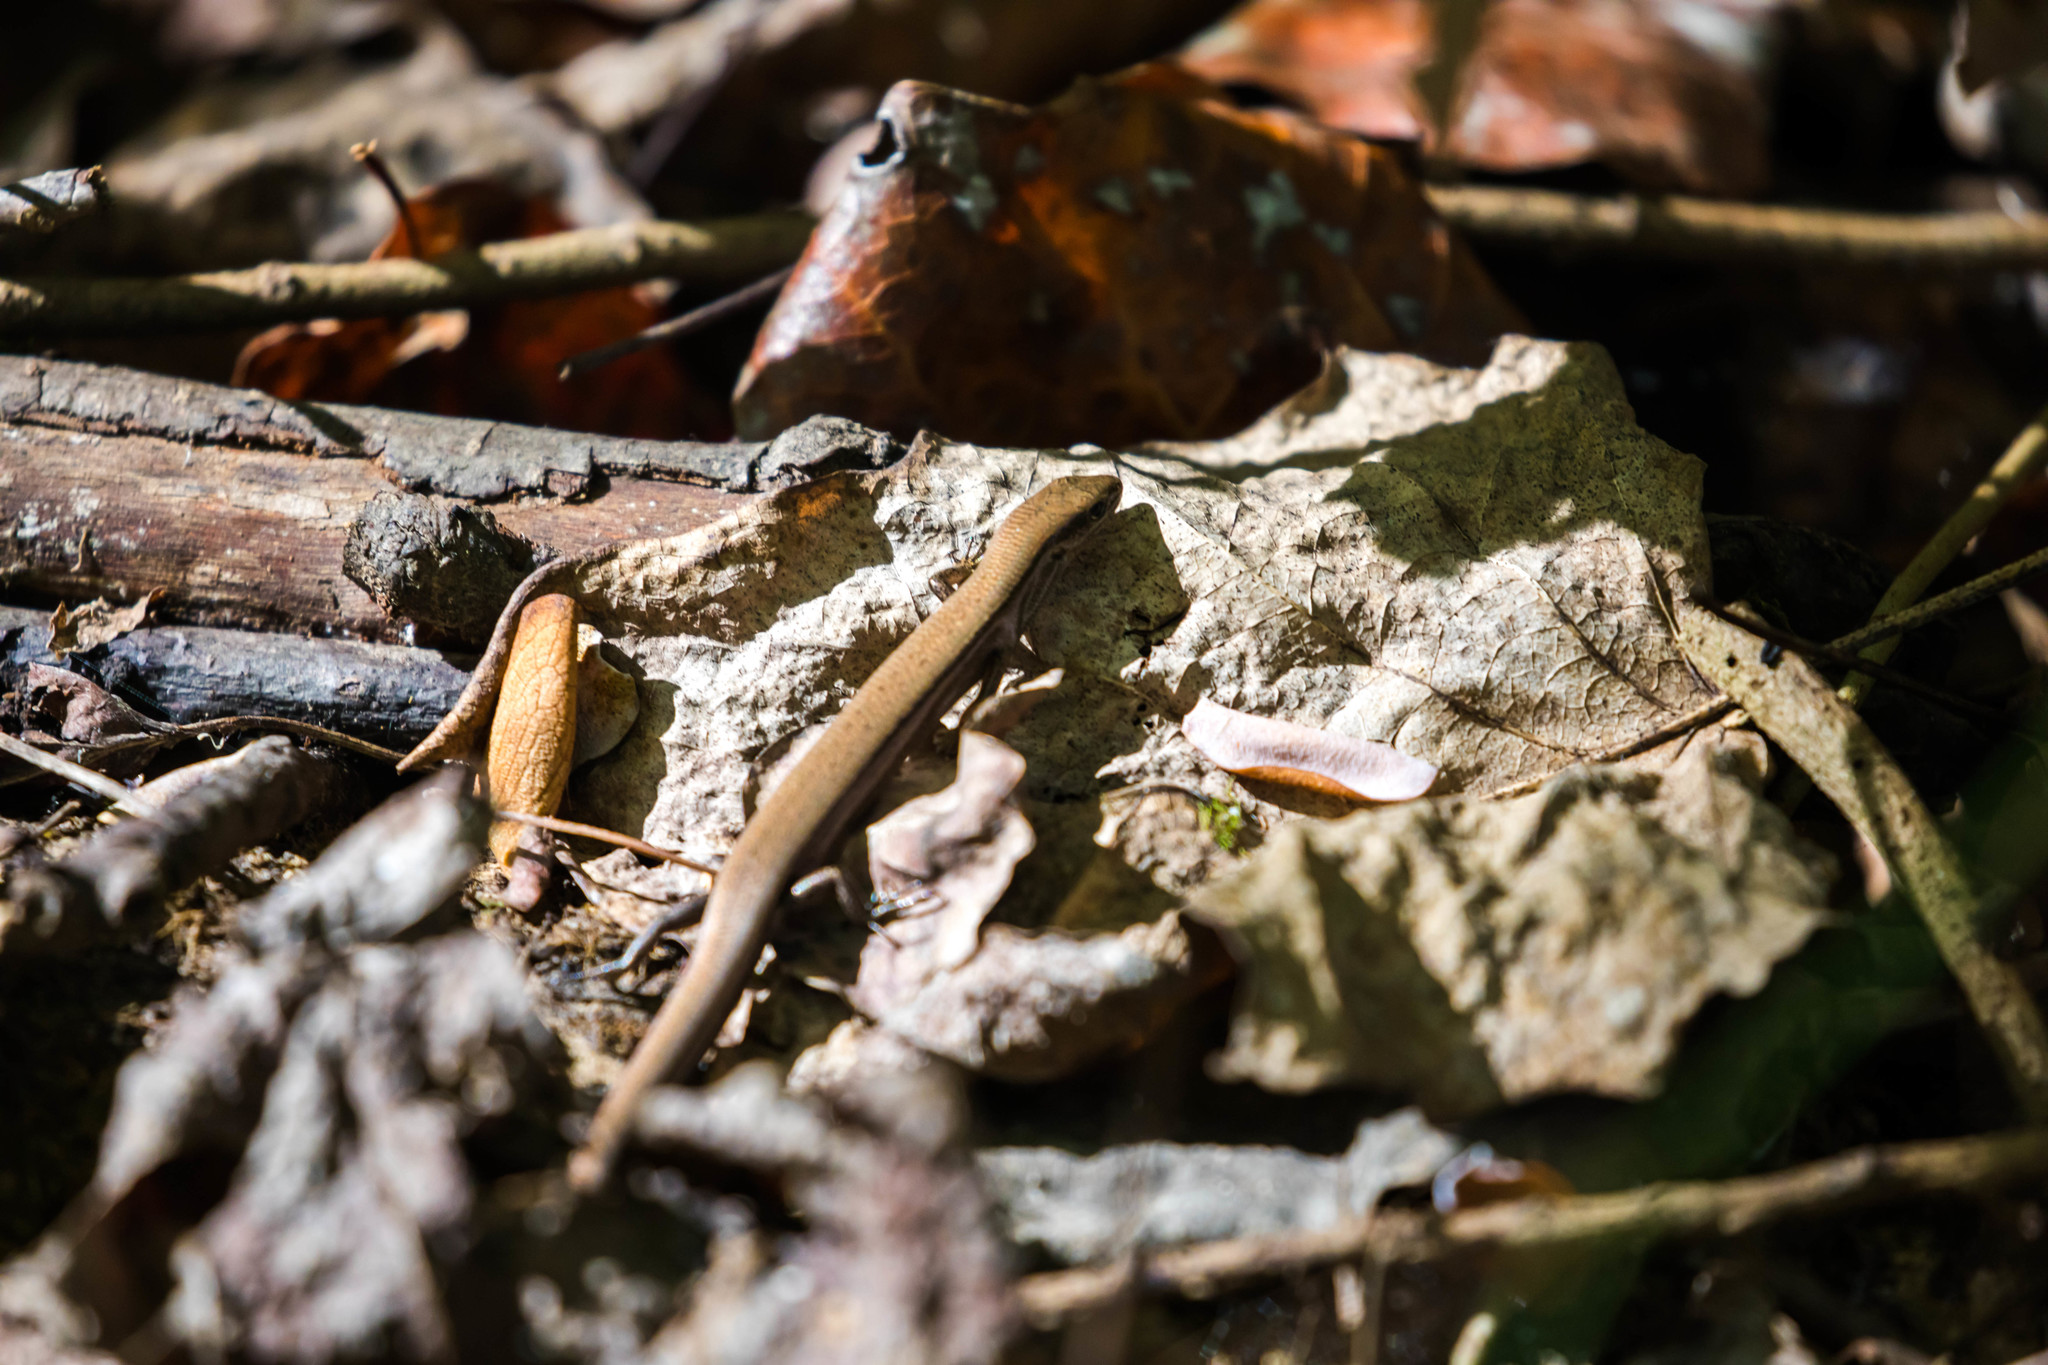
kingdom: Animalia
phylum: Chordata
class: Squamata
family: Scincidae
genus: Scincella
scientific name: Scincella lateralis
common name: Ground skink
